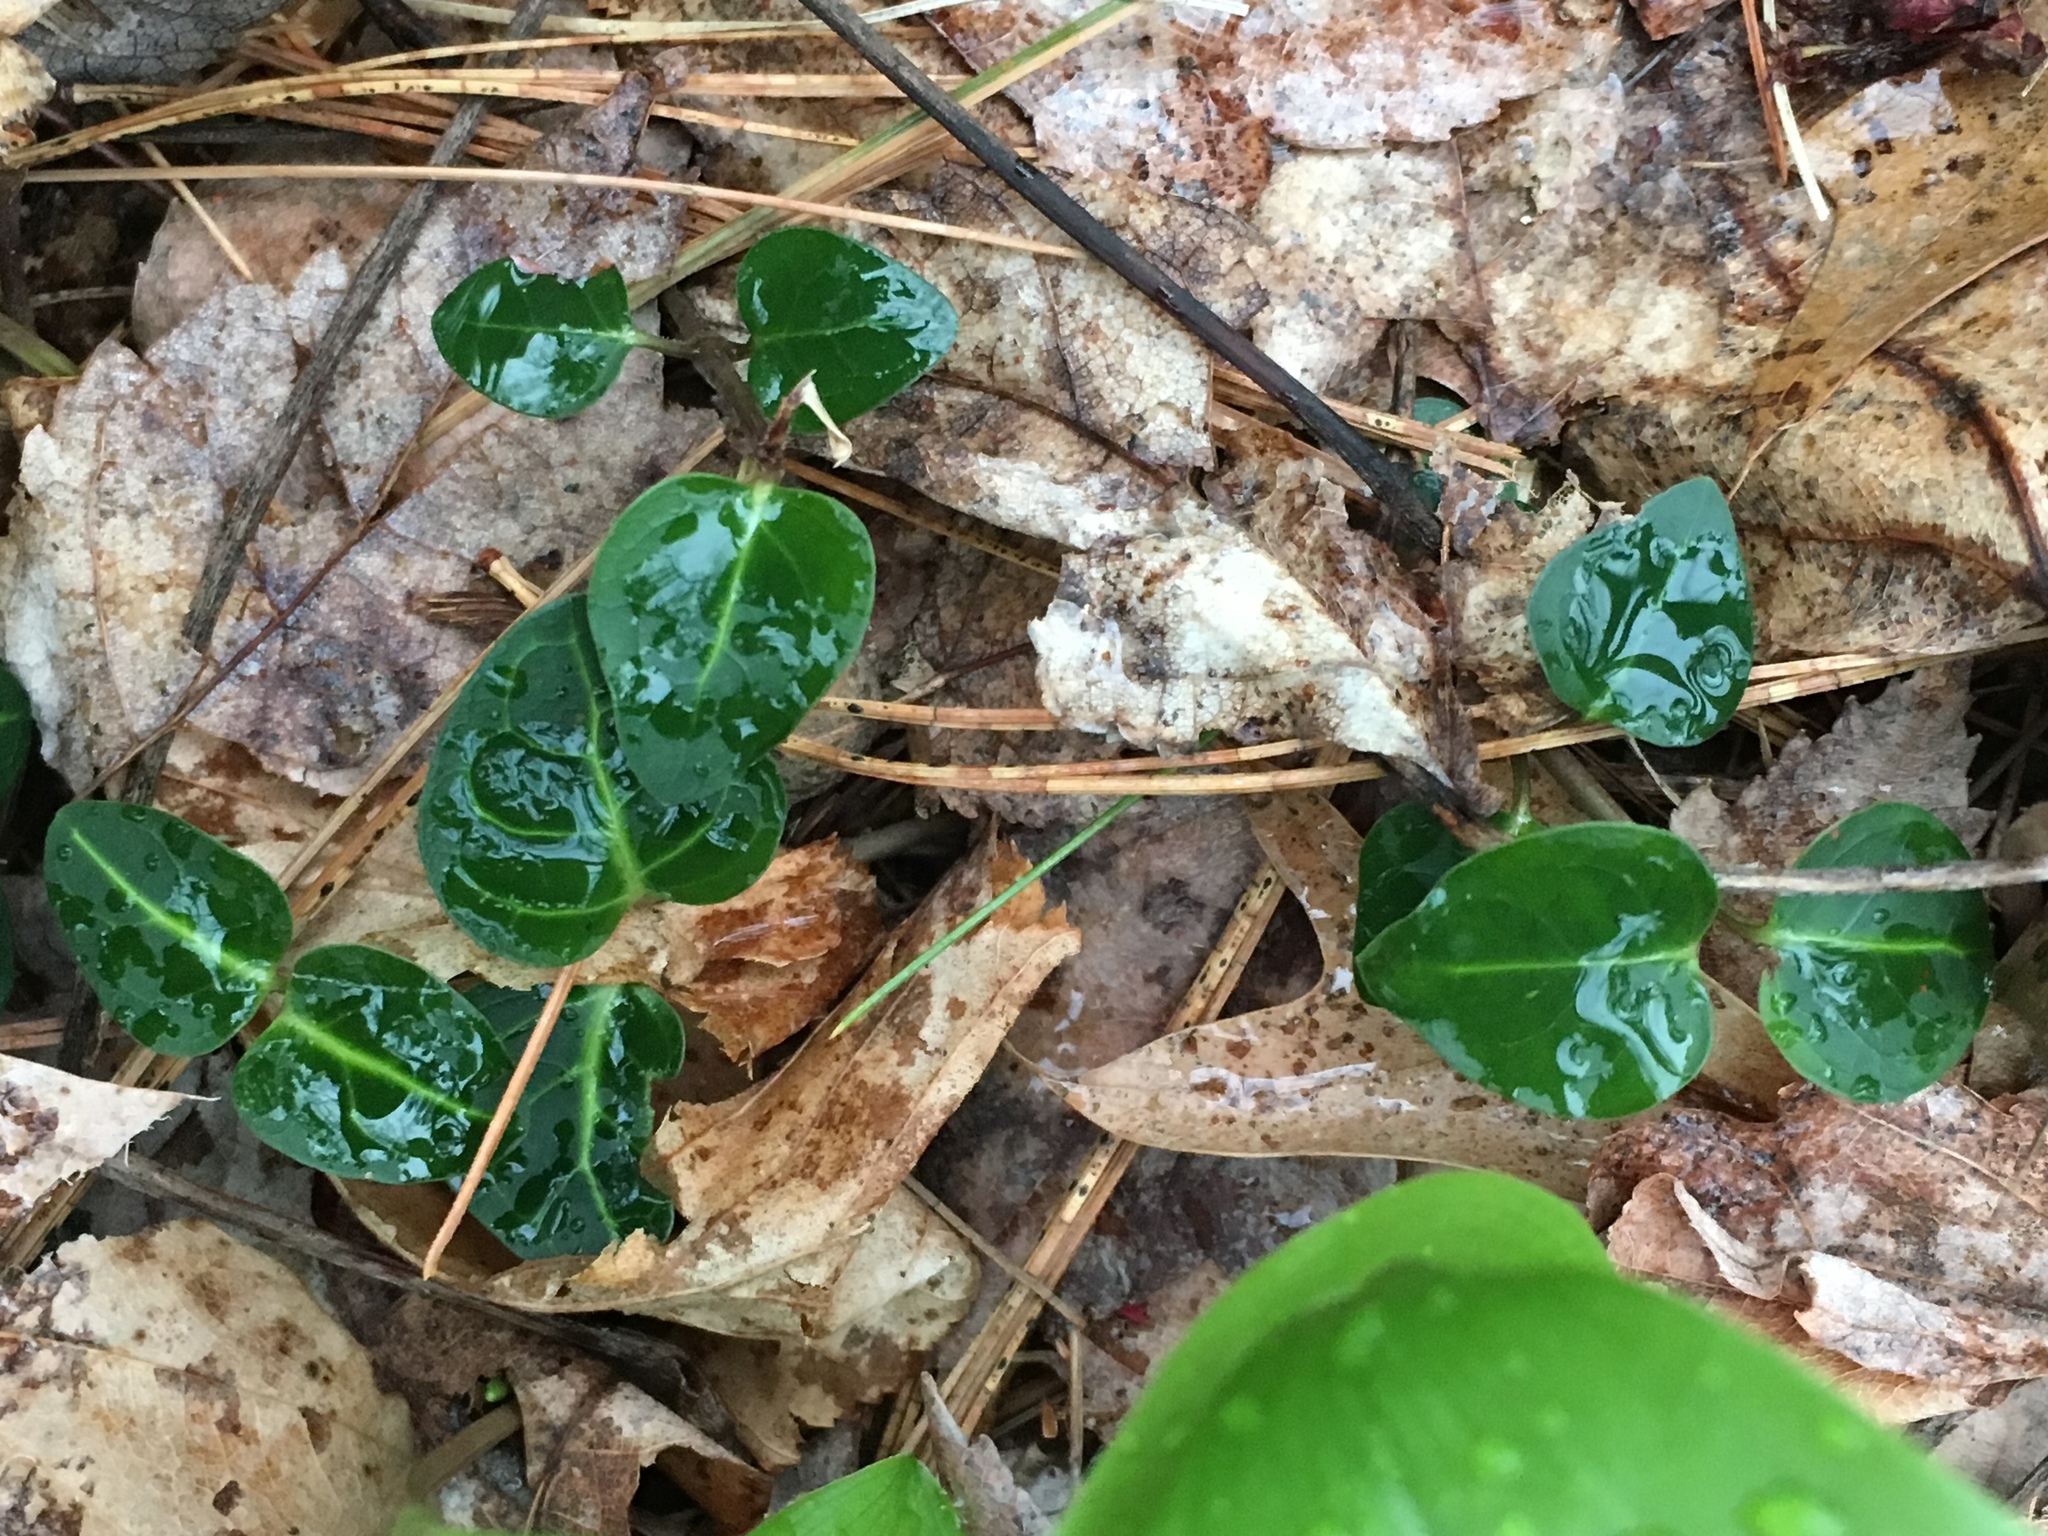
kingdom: Plantae
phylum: Tracheophyta
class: Magnoliopsida
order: Gentianales
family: Rubiaceae
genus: Mitchella
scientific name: Mitchella repens
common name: Partridge-berry
